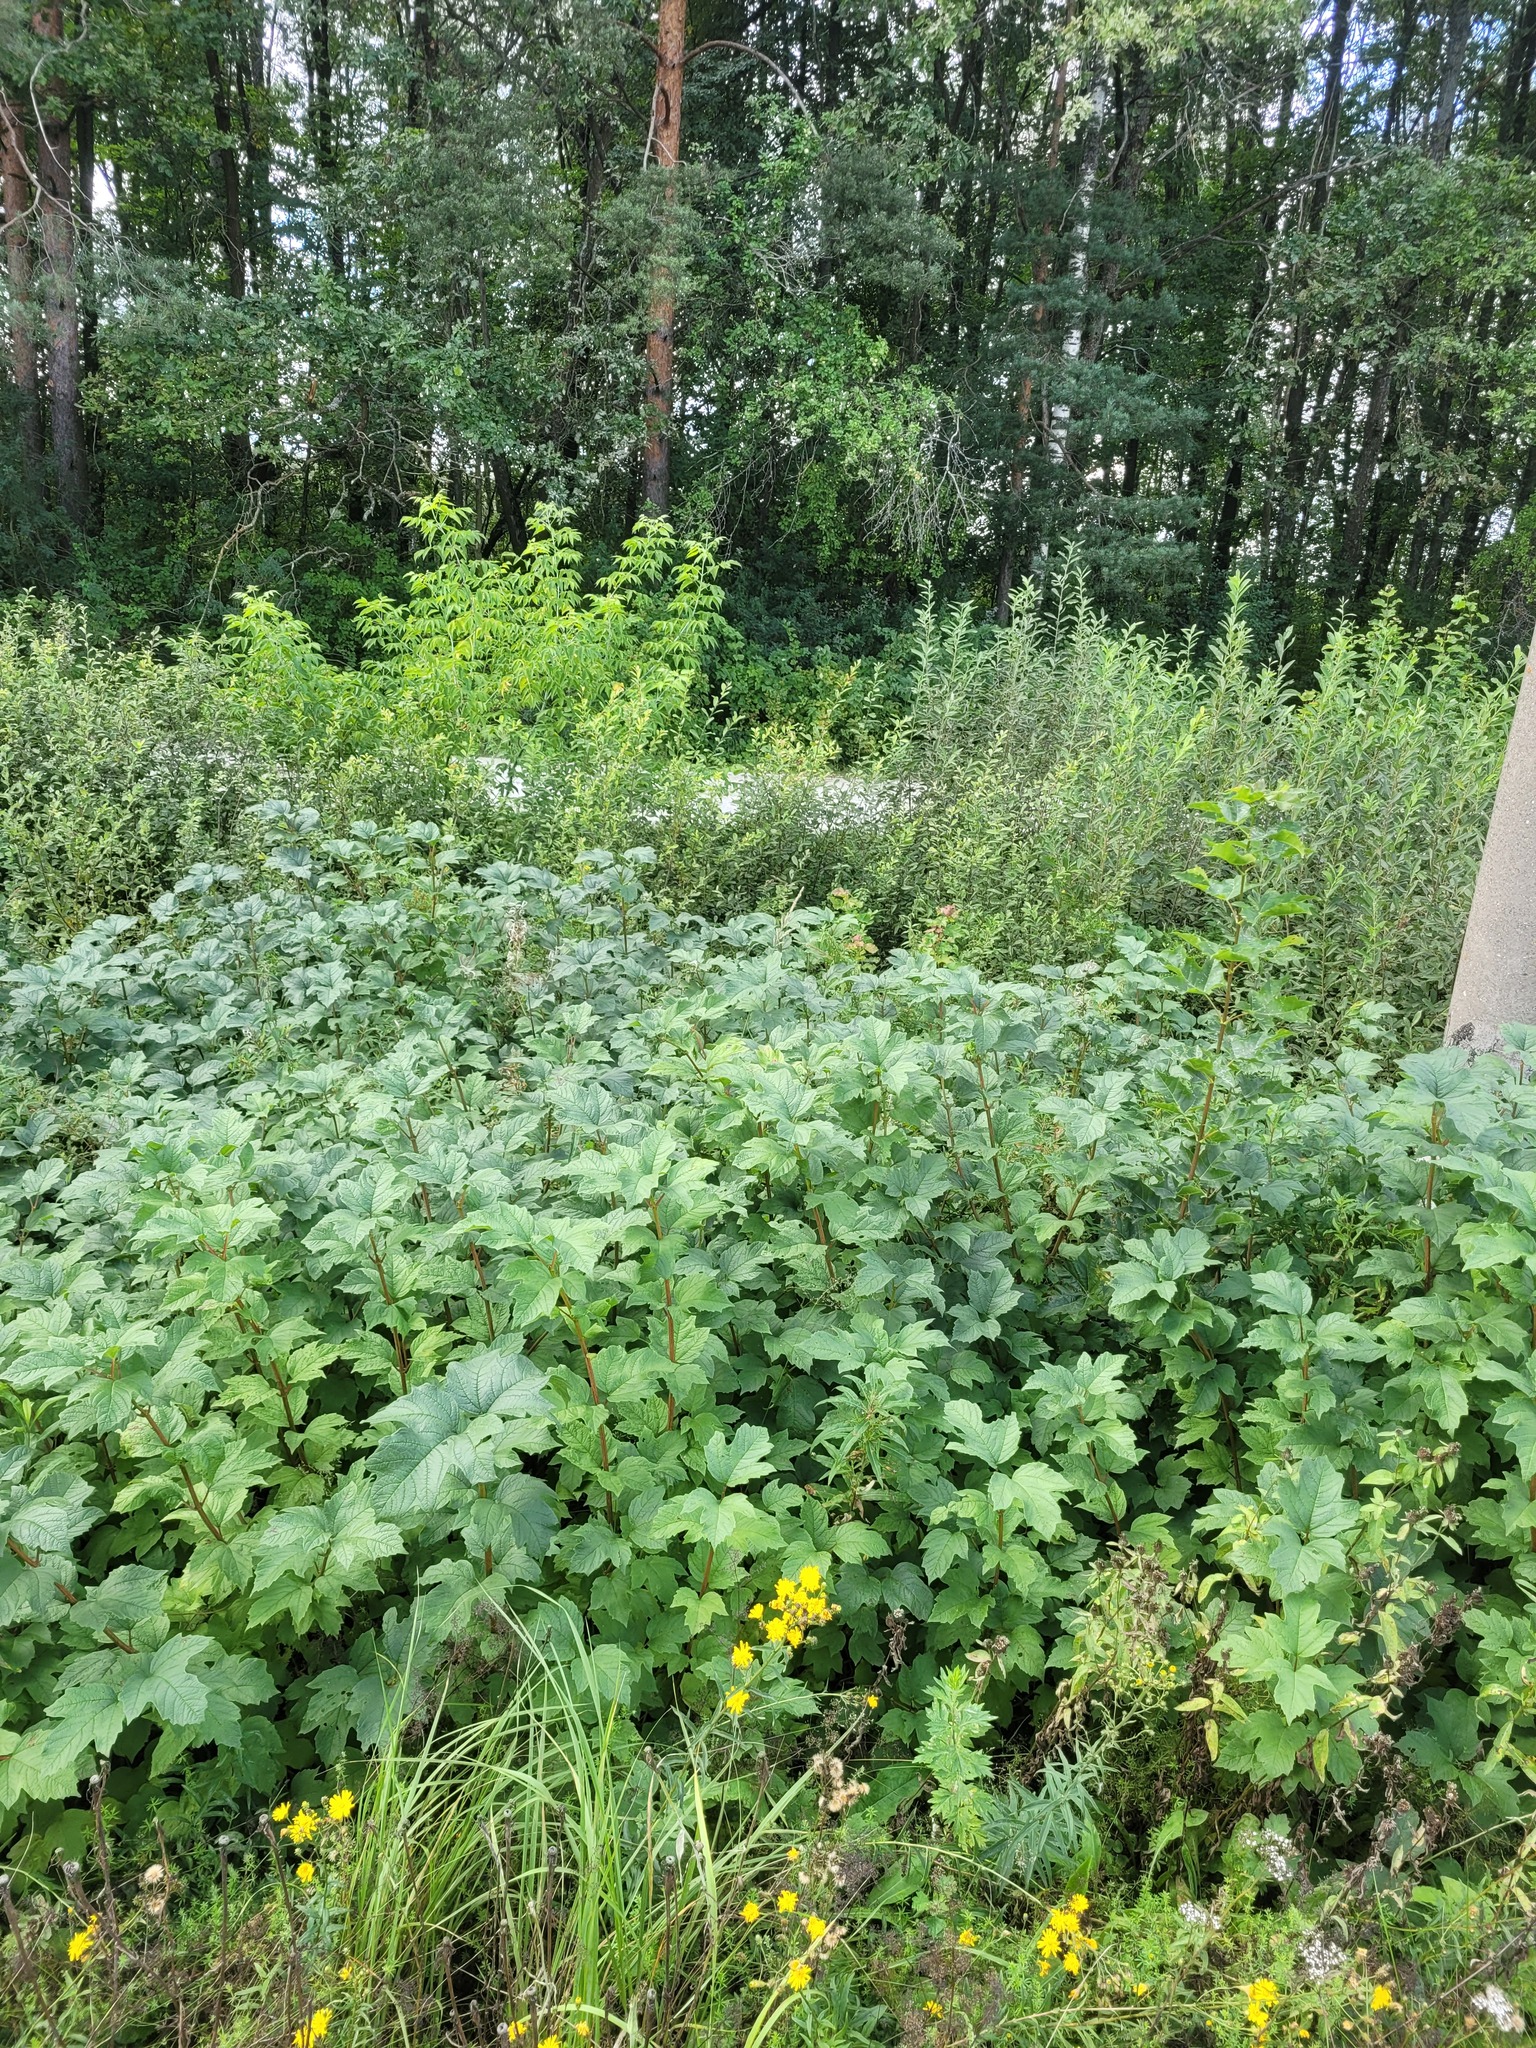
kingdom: Plantae
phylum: Tracheophyta
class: Magnoliopsida
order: Dipsacales
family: Viburnaceae
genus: Viburnum
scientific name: Viburnum opulus
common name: Guelder-rose
